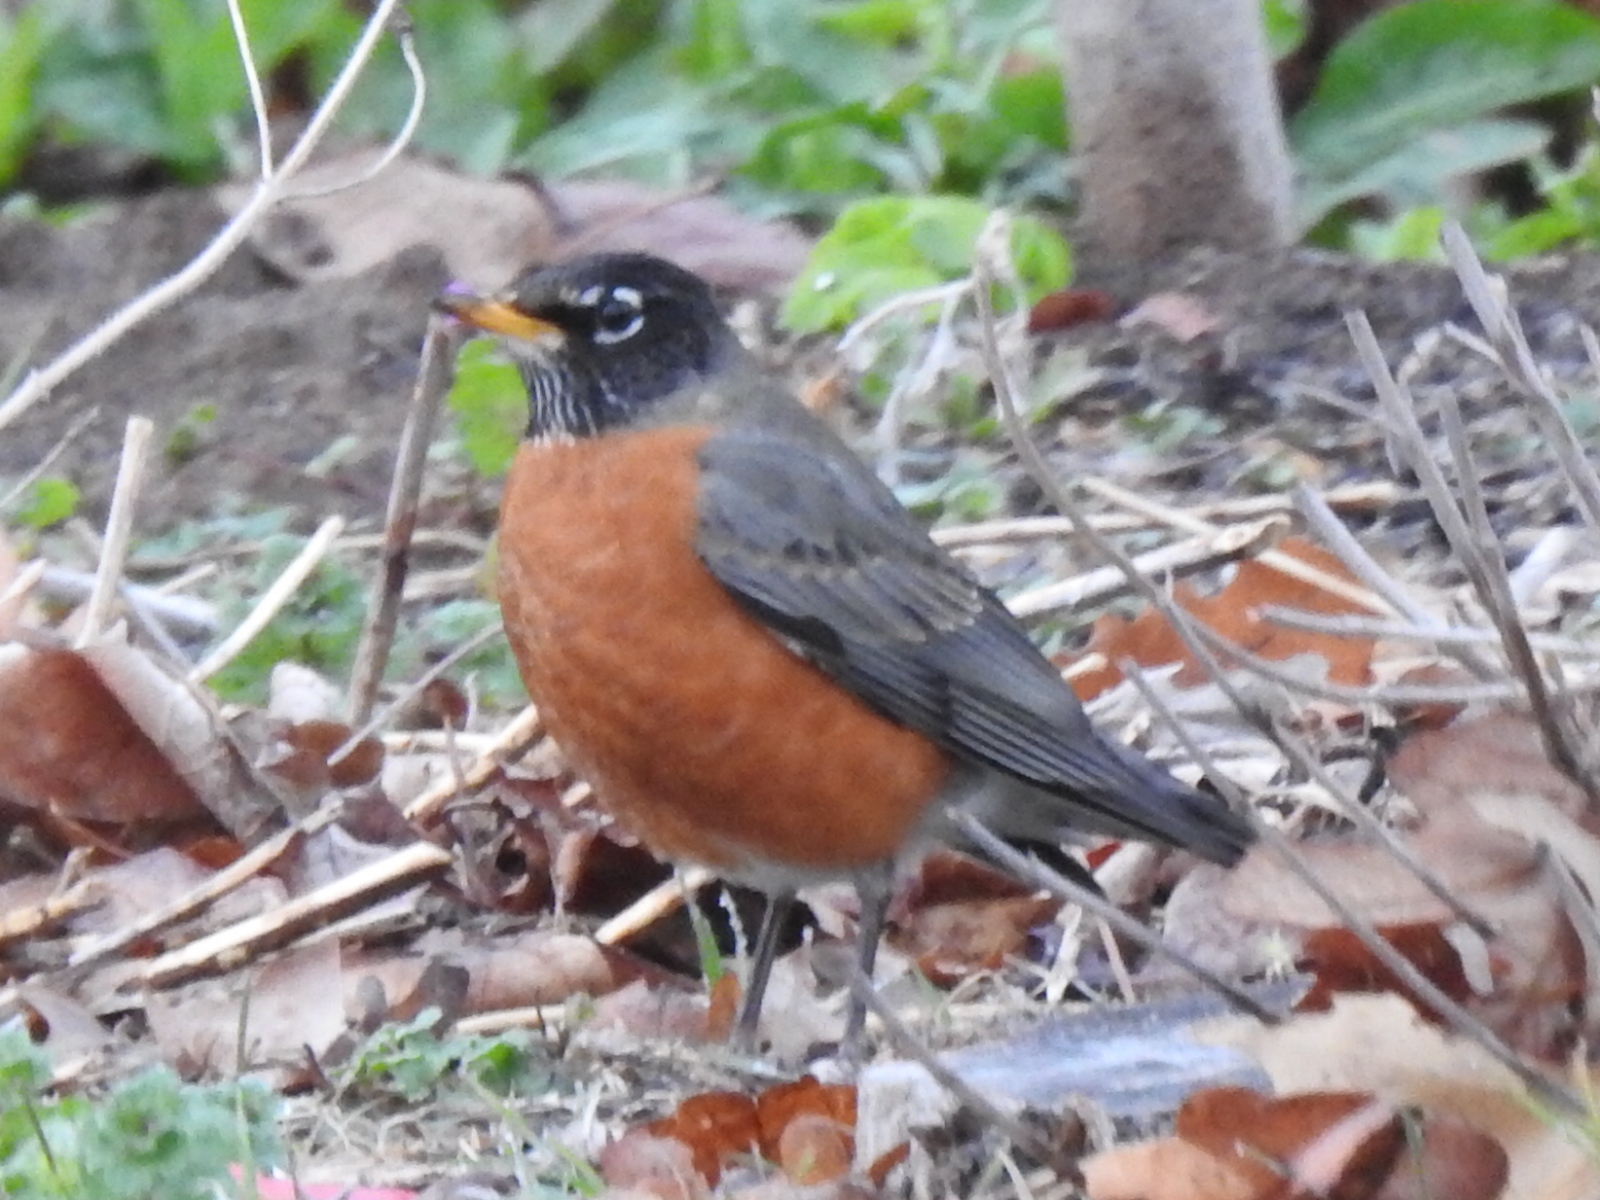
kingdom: Animalia
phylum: Chordata
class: Aves
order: Passeriformes
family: Turdidae
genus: Turdus
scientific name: Turdus migratorius
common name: American robin
